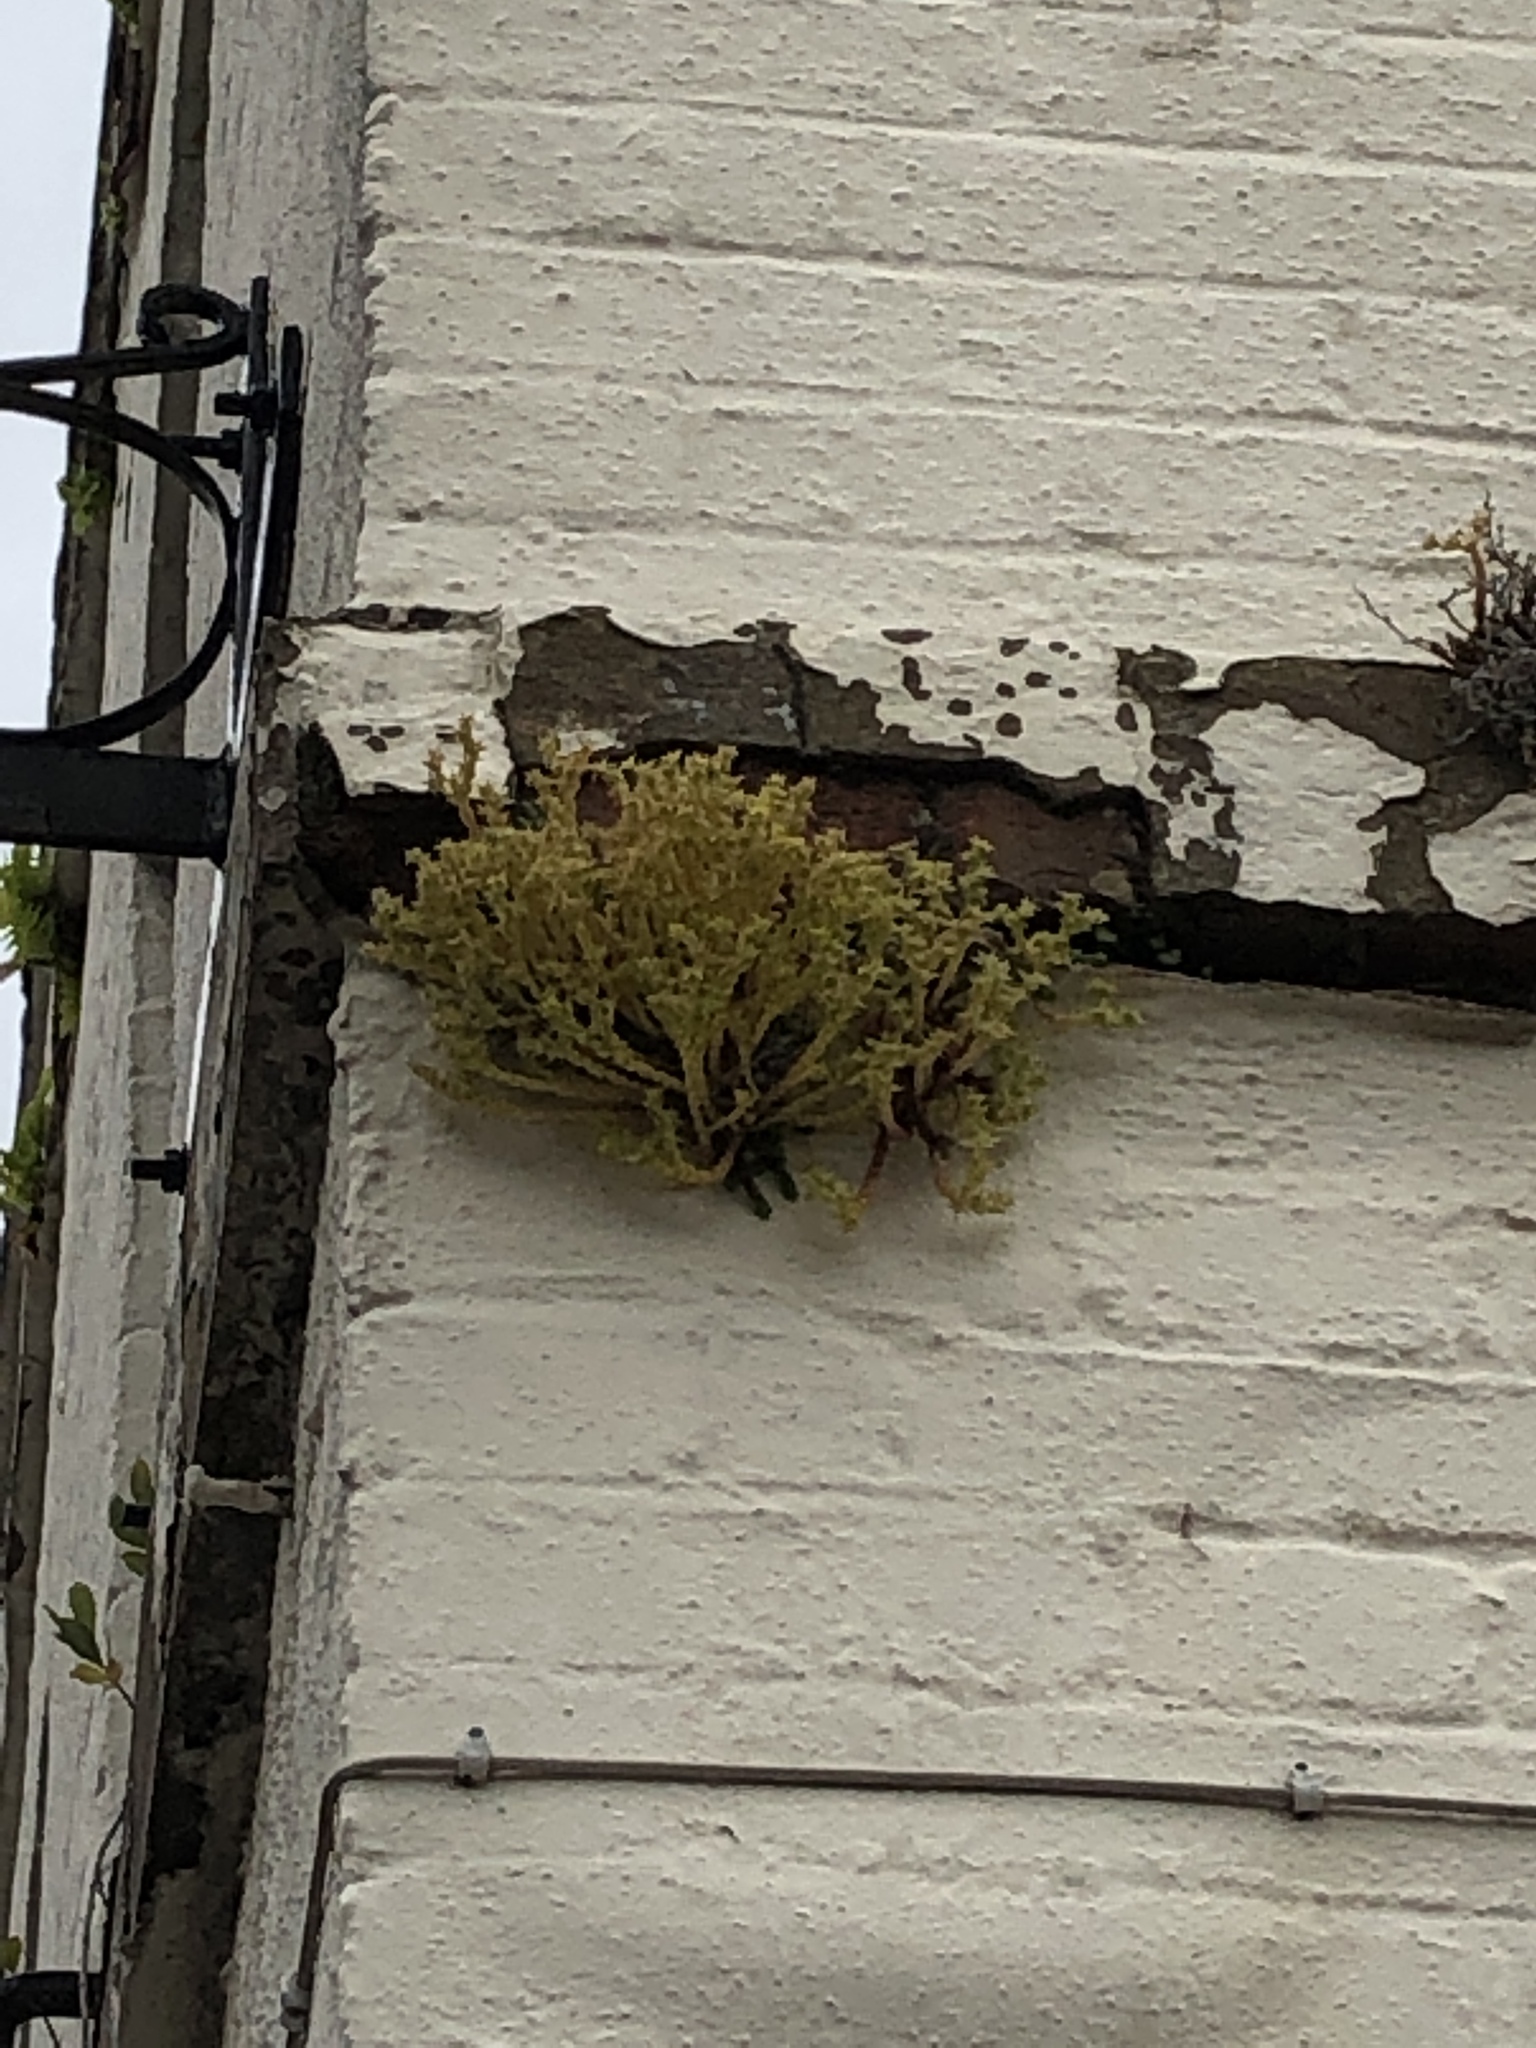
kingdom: Plantae
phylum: Tracheophyta
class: Magnoliopsida
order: Saxifragales
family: Crassulaceae
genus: Sedum
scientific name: Sedum acre
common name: Biting stonecrop
